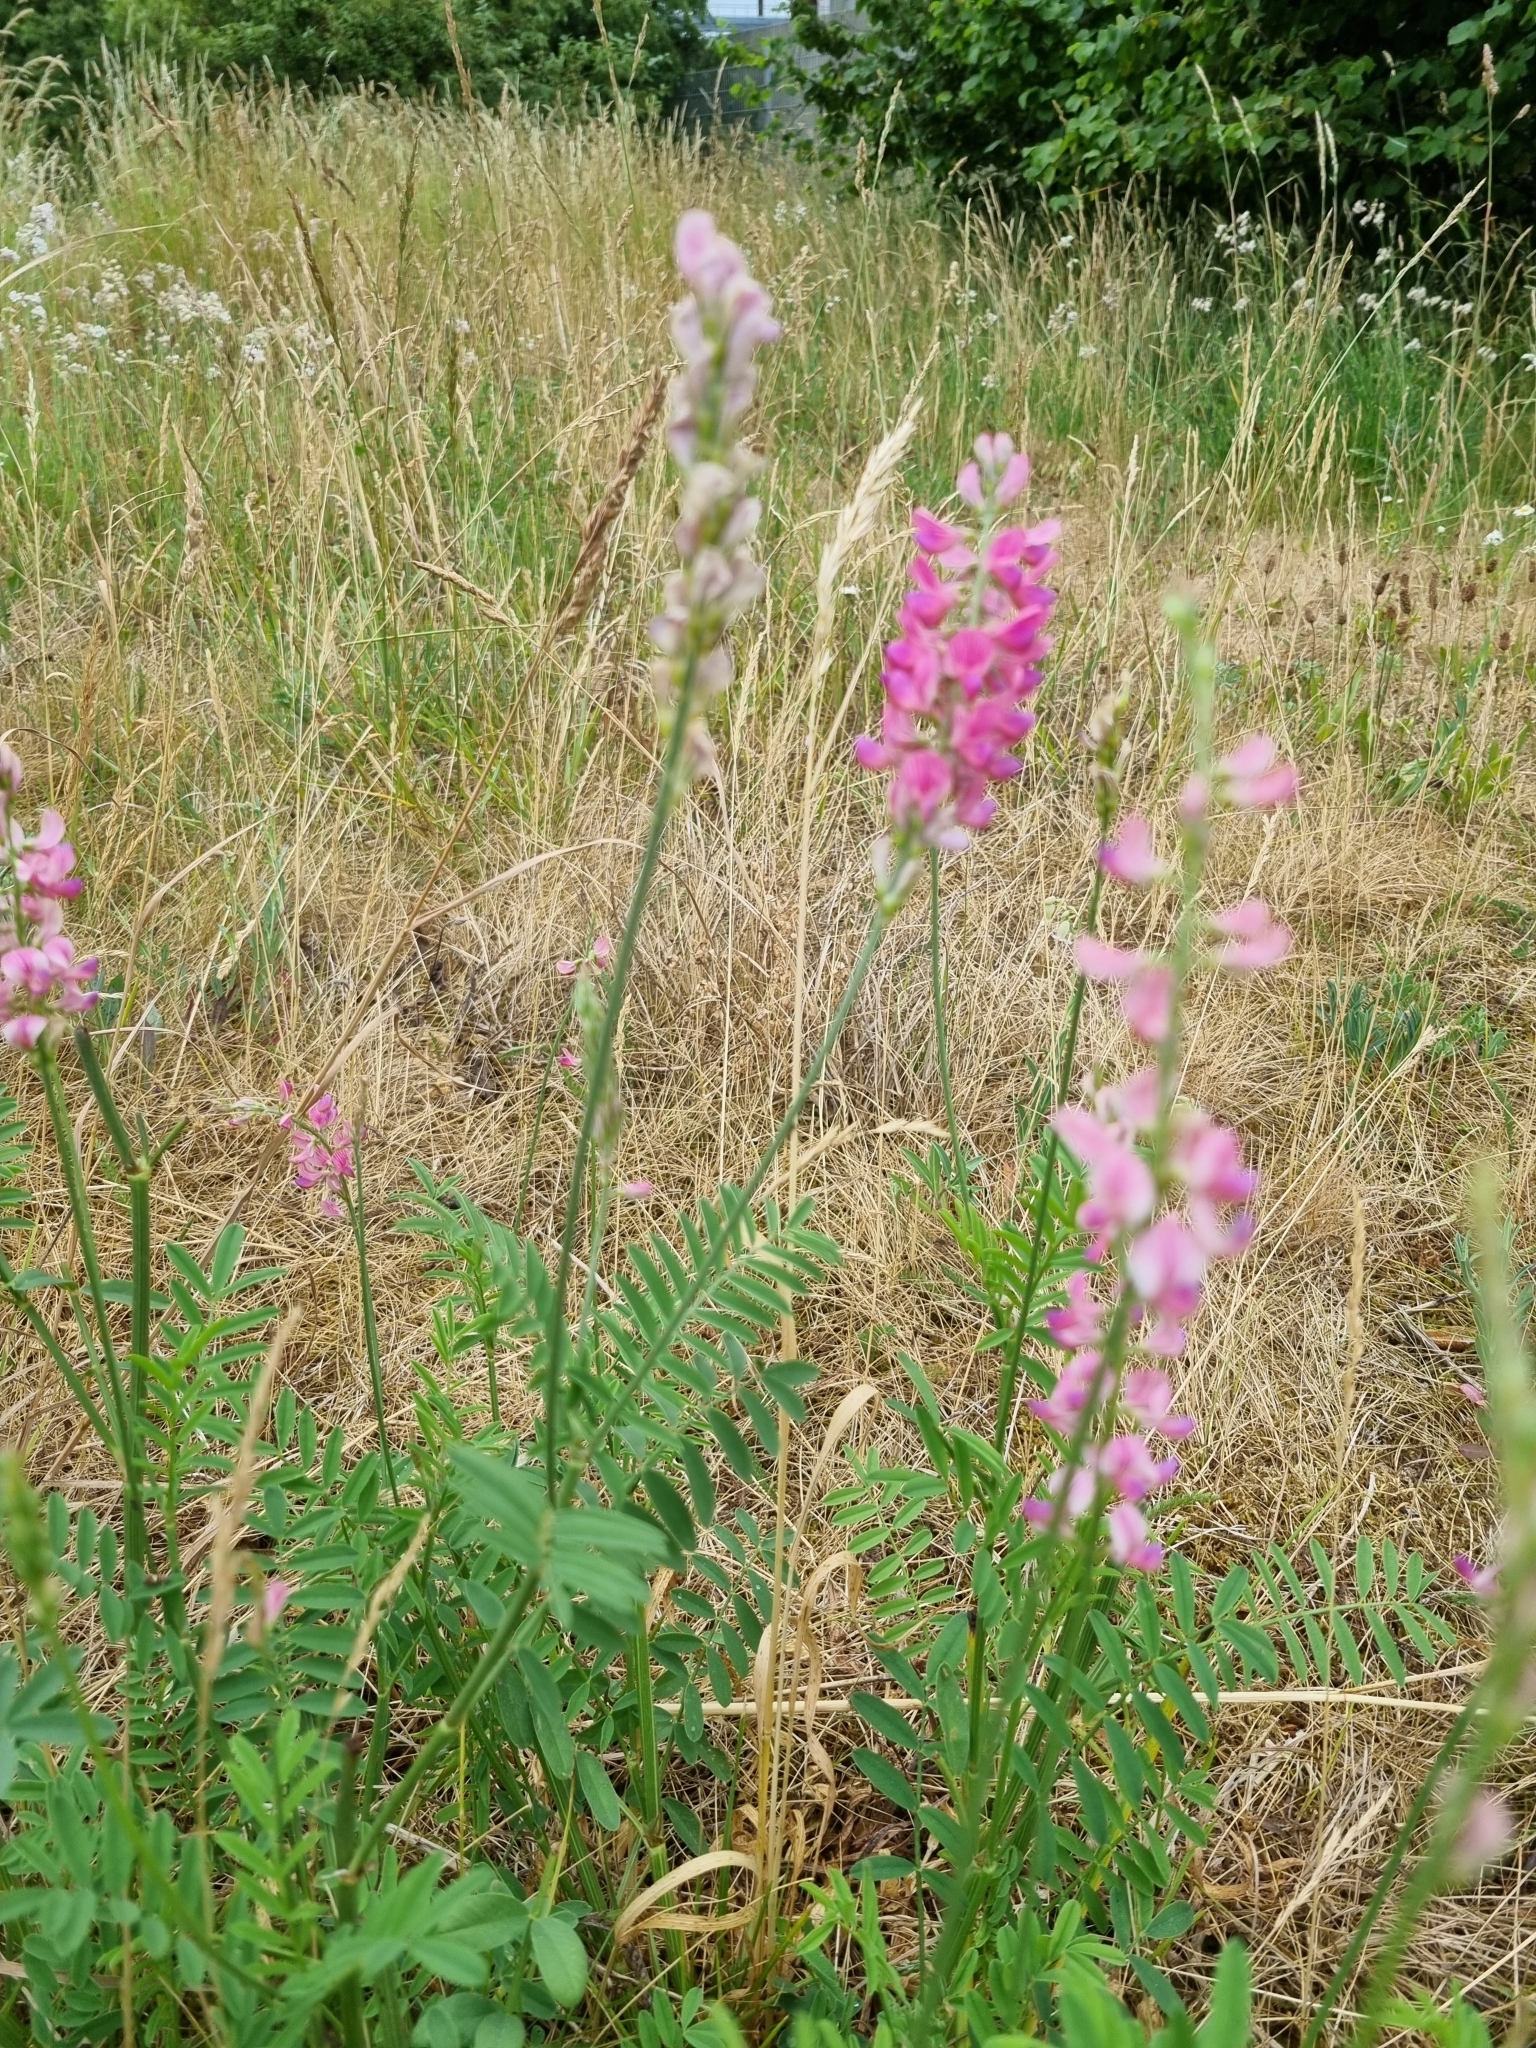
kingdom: Plantae
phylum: Tracheophyta
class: Magnoliopsida
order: Fabales
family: Fabaceae
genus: Onobrychis
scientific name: Onobrychis viciifolia
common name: Sainfoin
